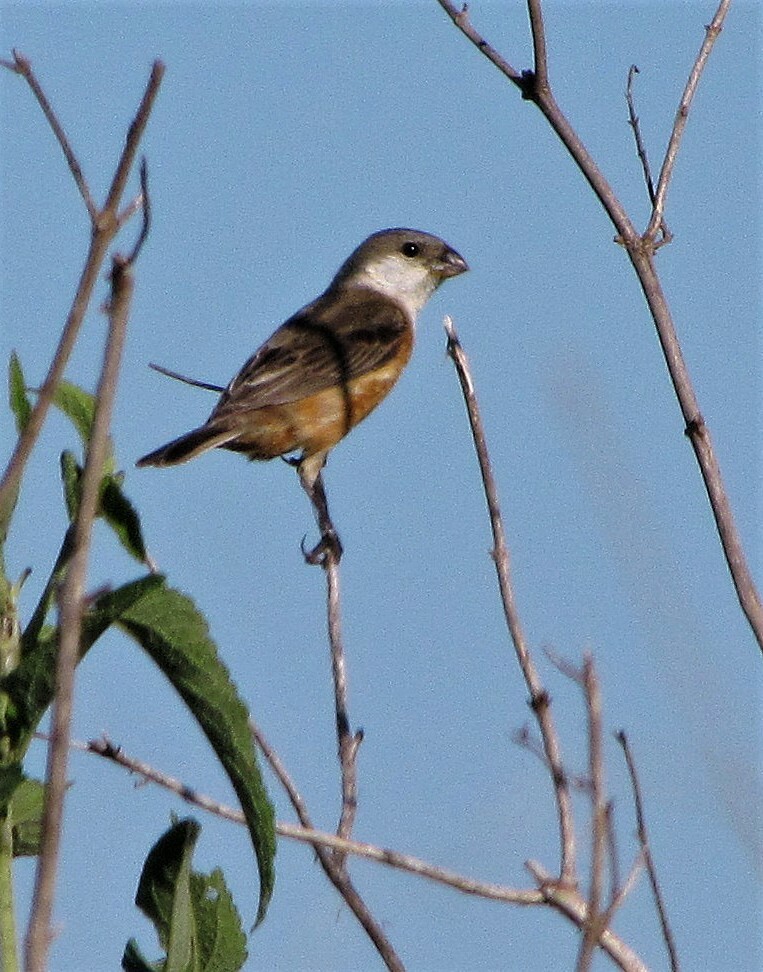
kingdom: Animalia
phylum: Chordata
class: Aves
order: Passeriformes
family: Thraupidae
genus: Sporophila
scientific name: Sporophila palustris
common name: Marsh seedeater
